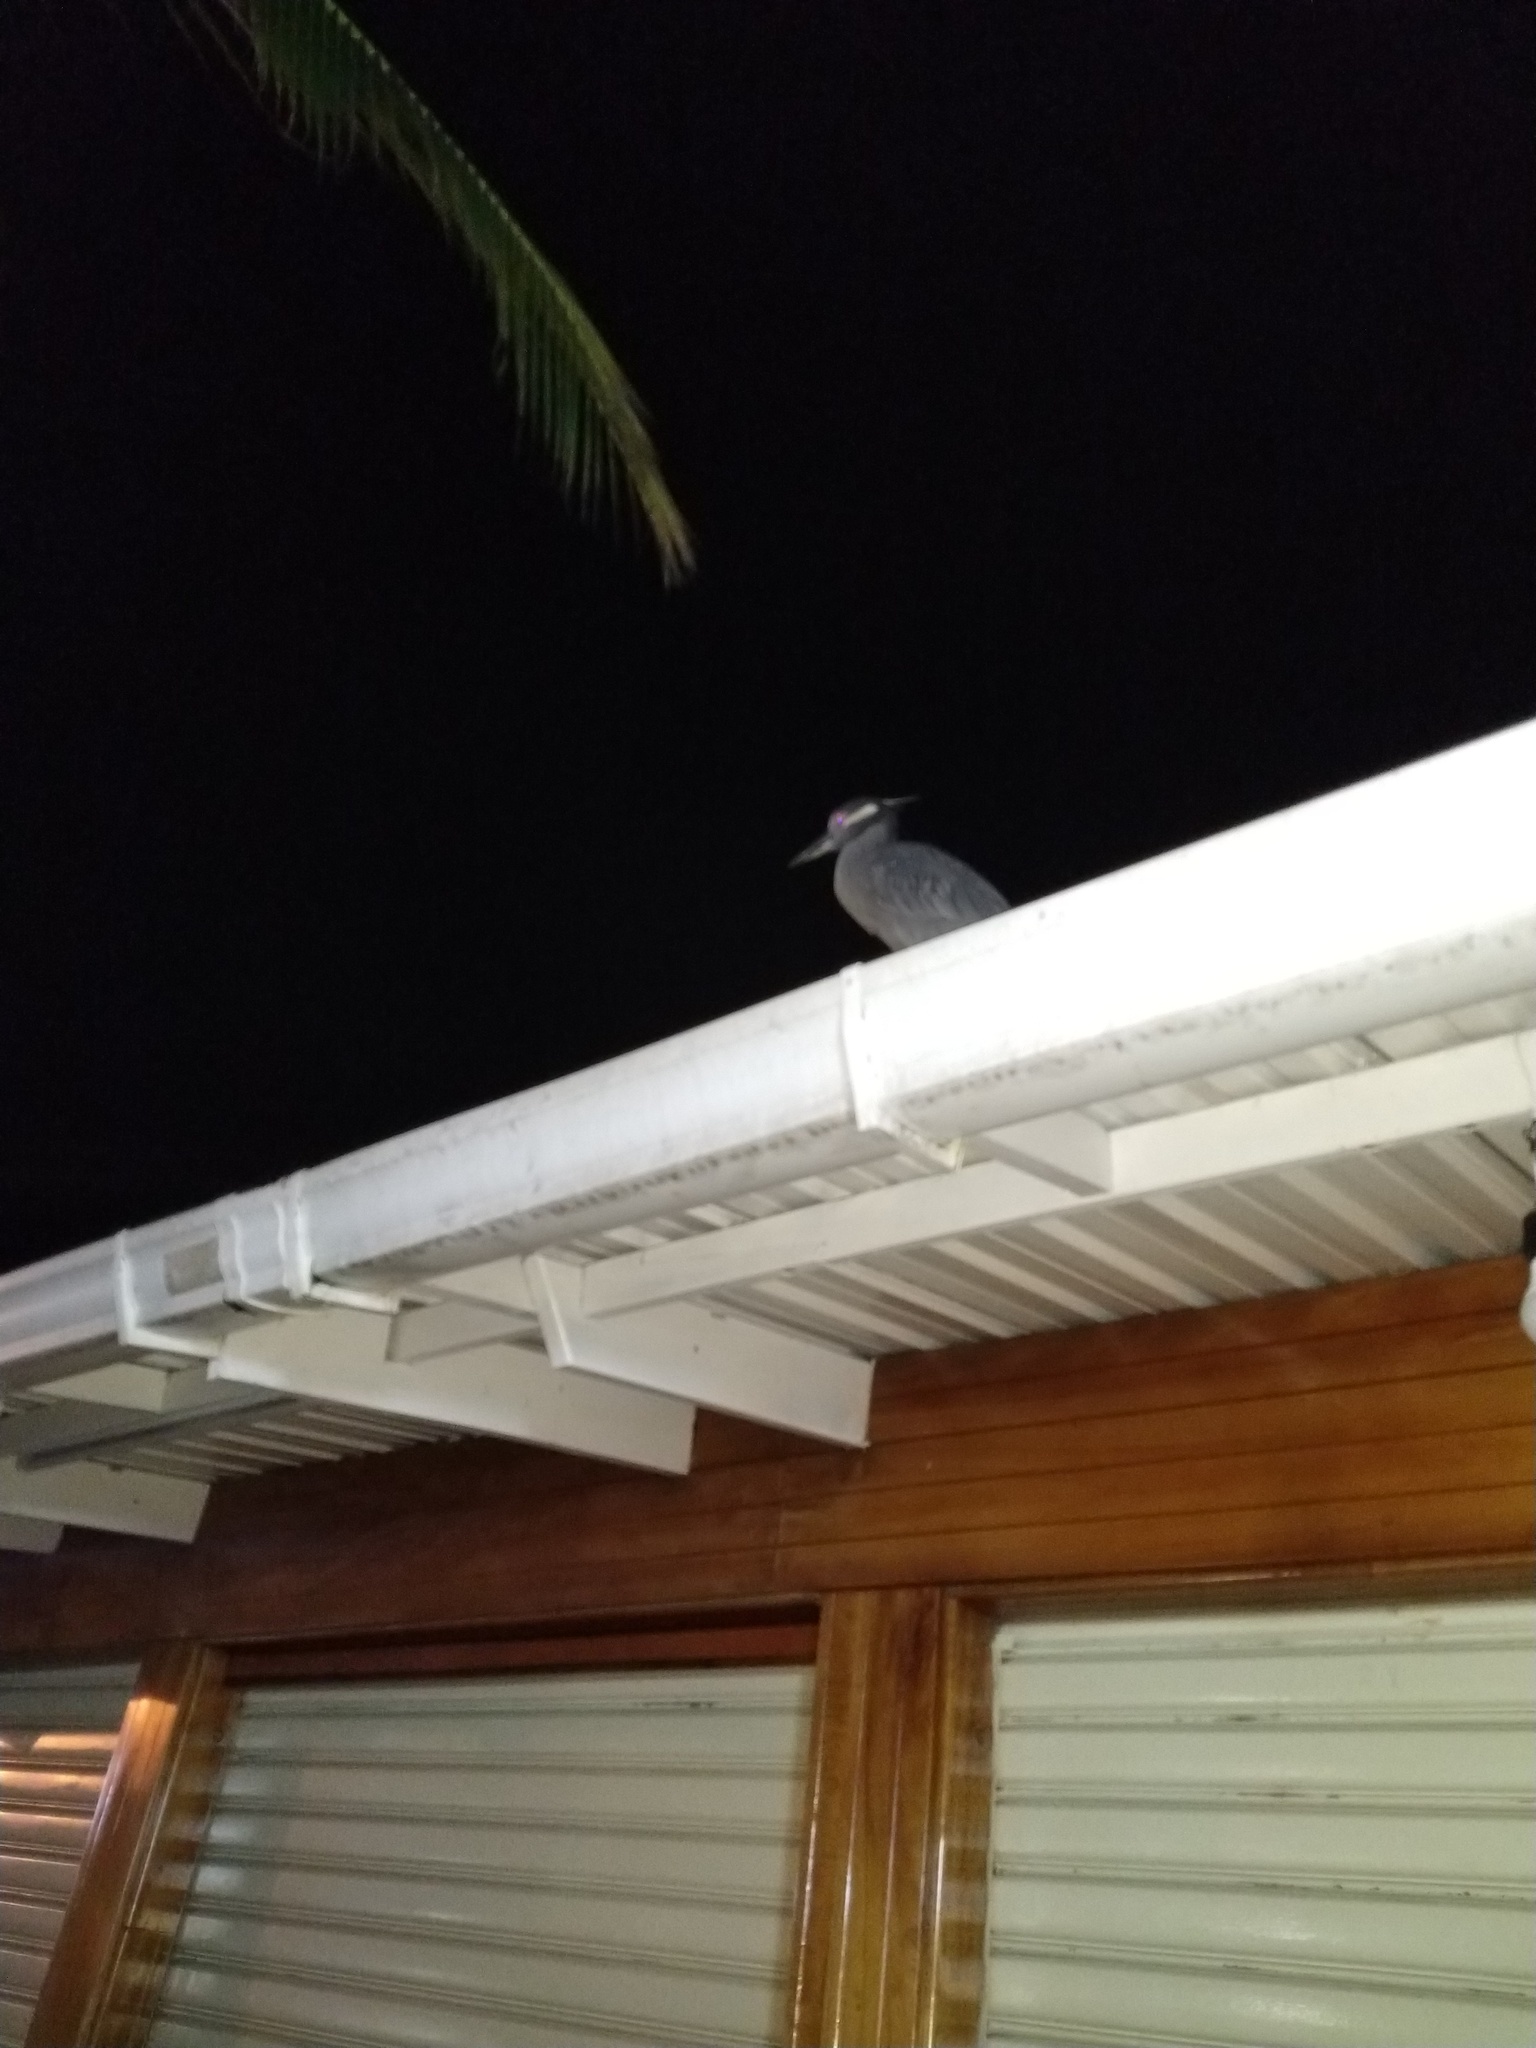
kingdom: Animalia
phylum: Chordata
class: Aves
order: Pelecaniformes
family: Ardeidae
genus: Nyctanassa
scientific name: Nyctanassa violacea
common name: Yellow-crowned night heron
